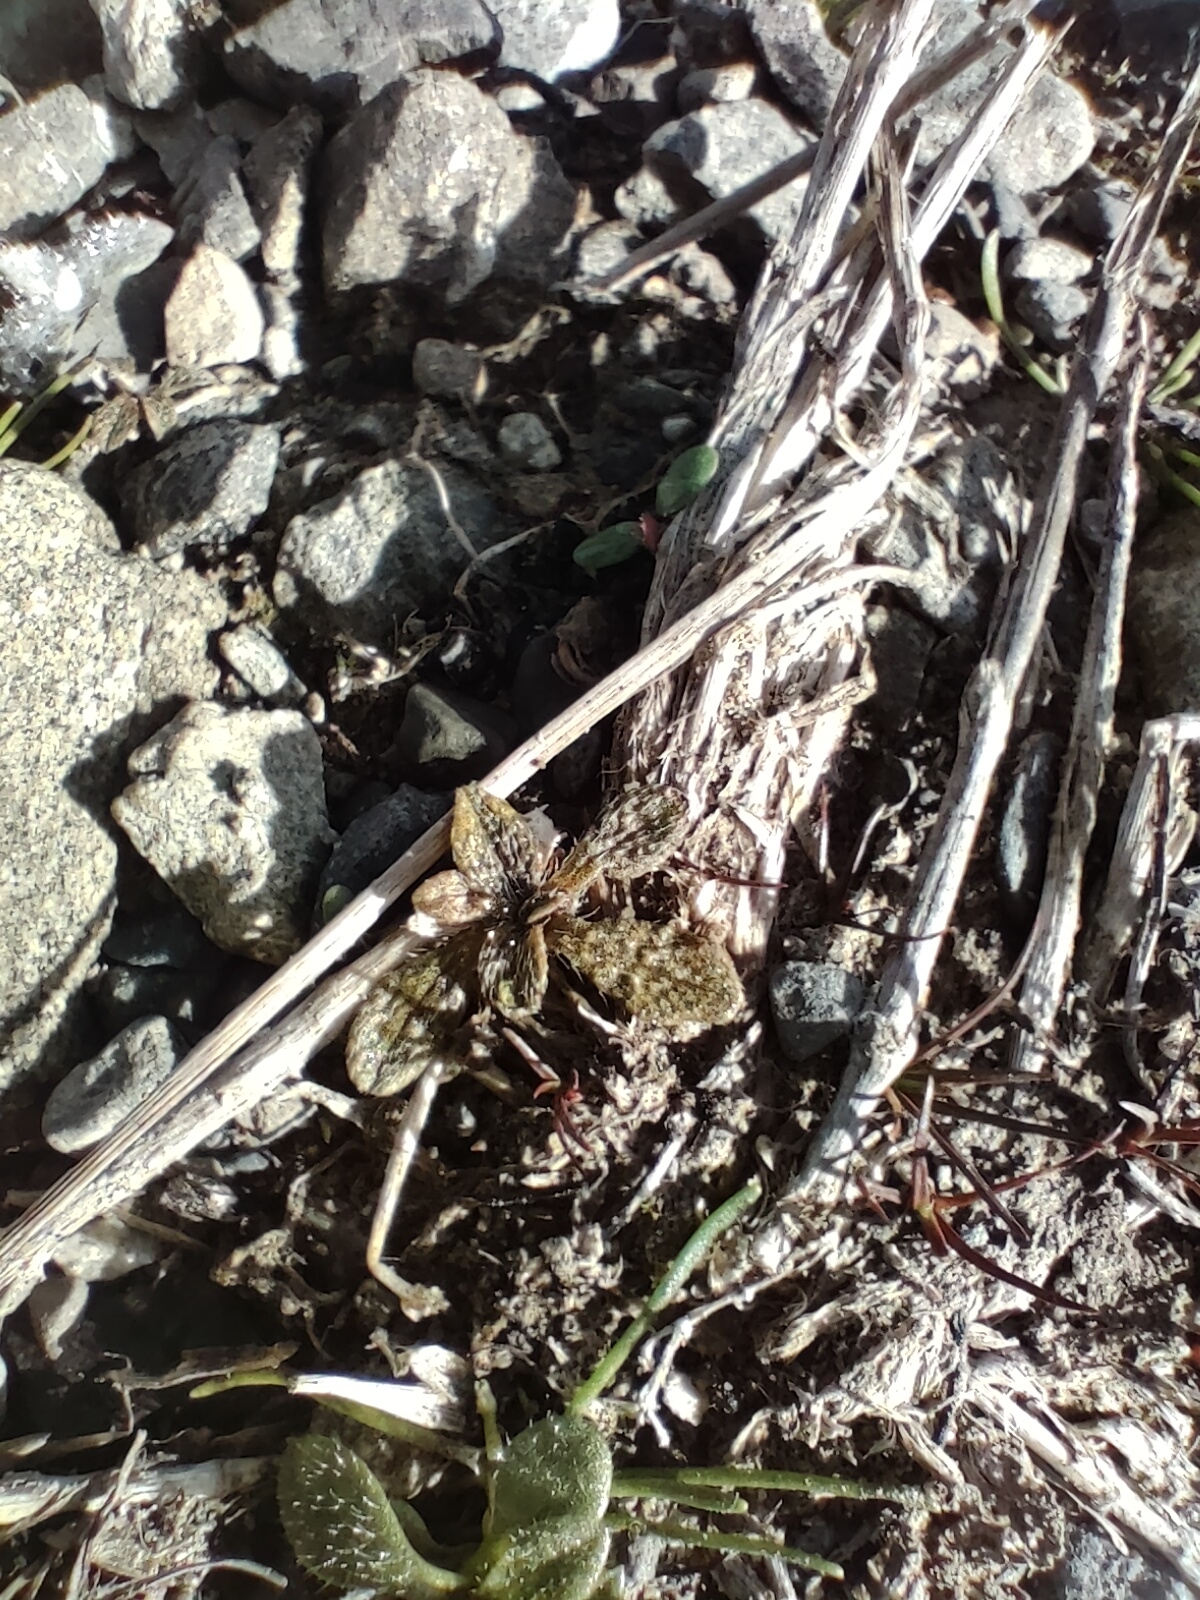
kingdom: Plantae
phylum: Tracheophyta
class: Magnoliopsida
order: Boraginales
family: Boraginaceae
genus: Myosotis
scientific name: Myosotis brevis
